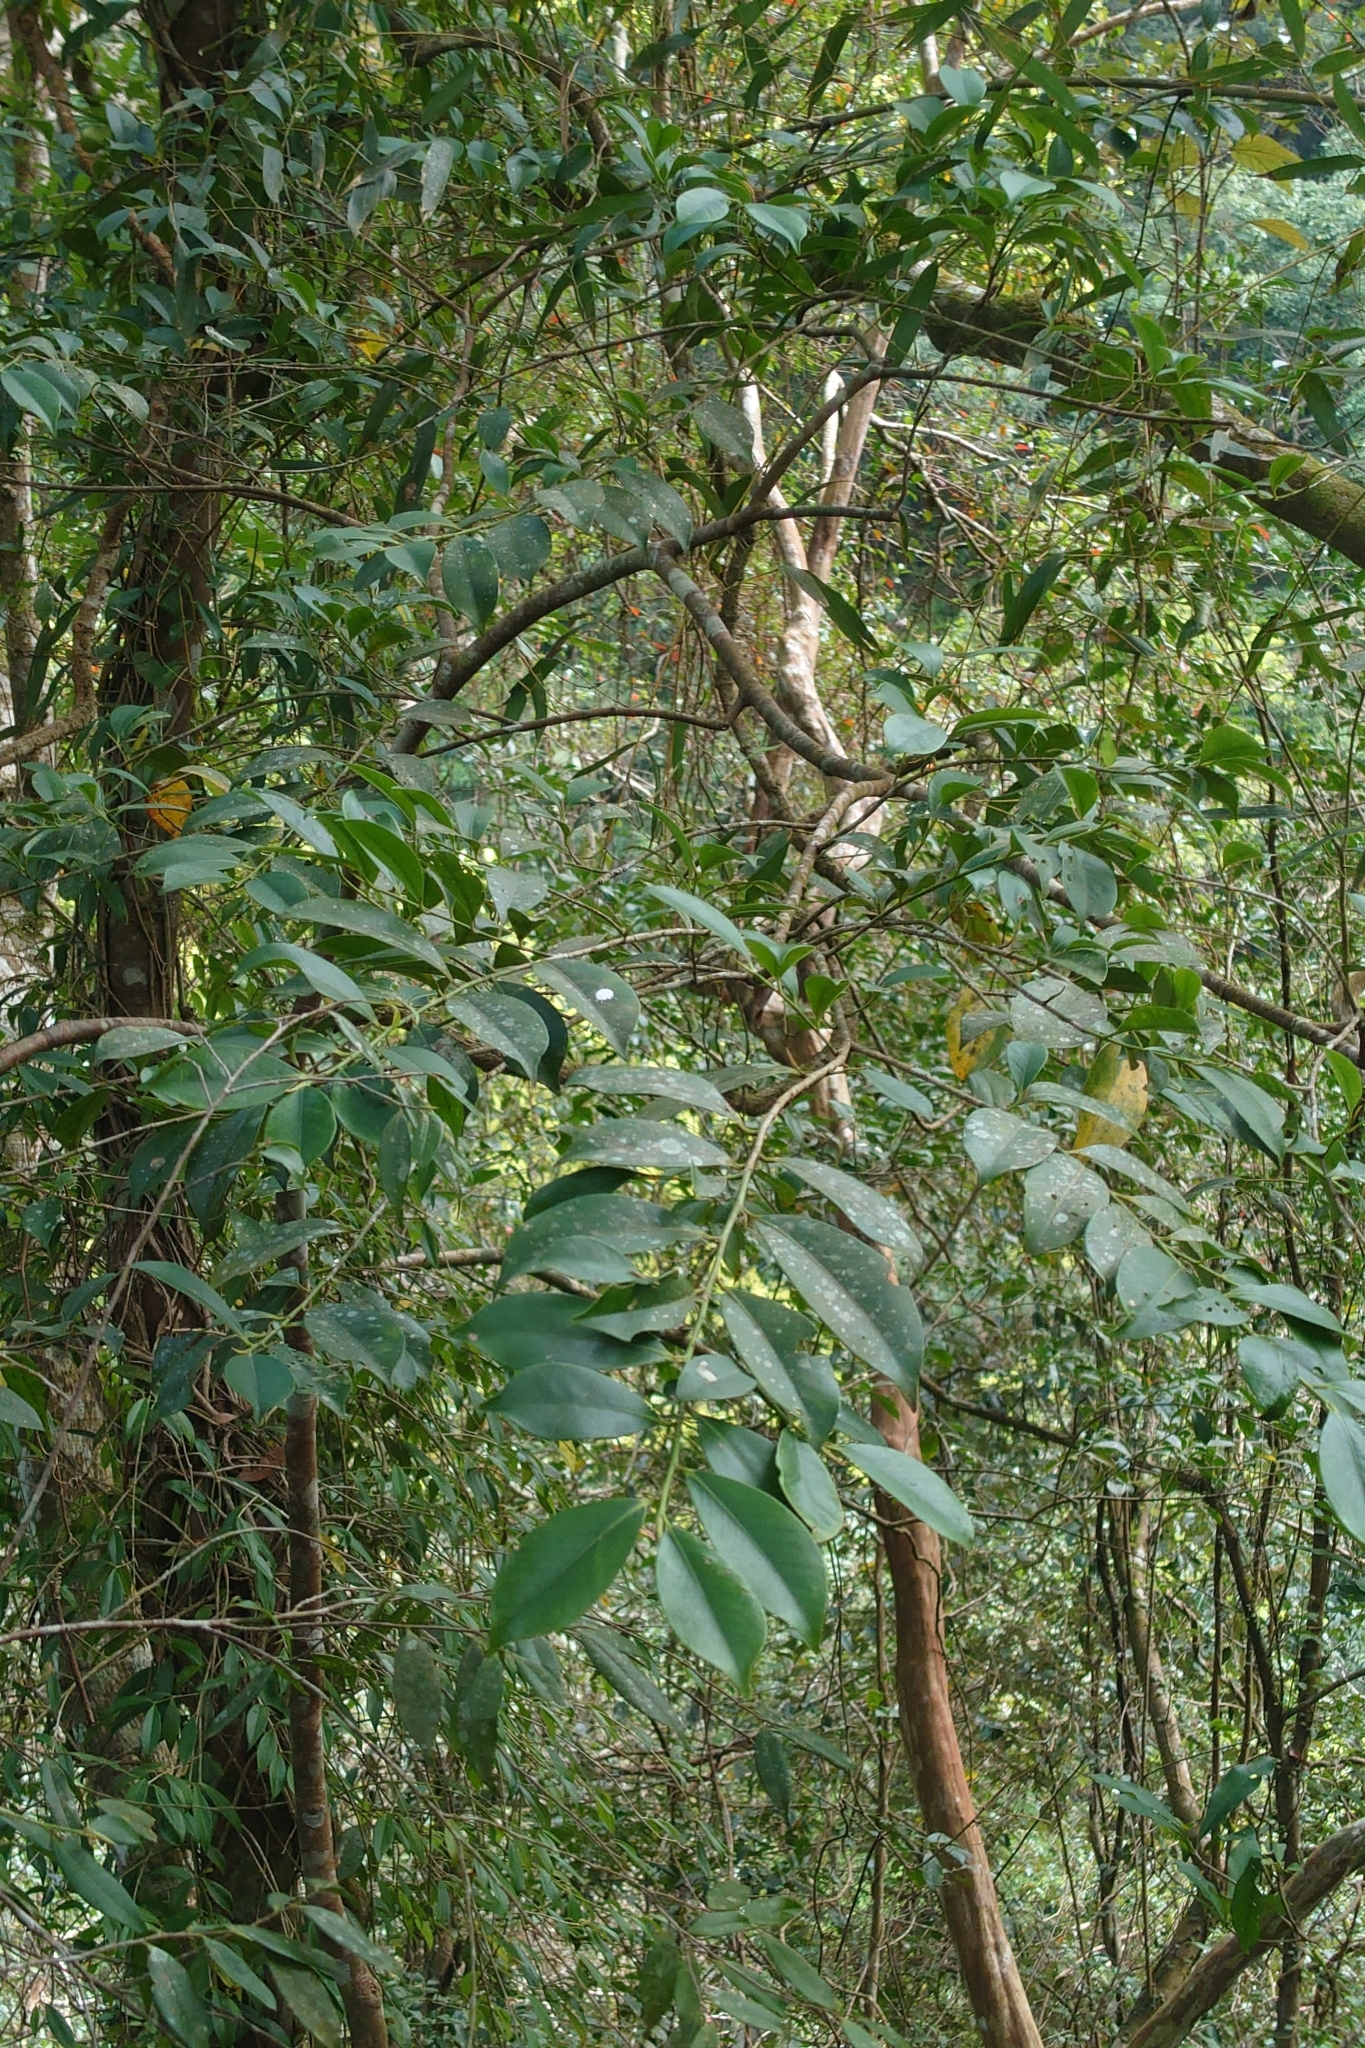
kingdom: Plantae
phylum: Tracheophyta
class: Magnoliopsida
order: Ericales
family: Pentaphylacaceae
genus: Cleyera
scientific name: Cleyera japonica
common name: Sakaki
